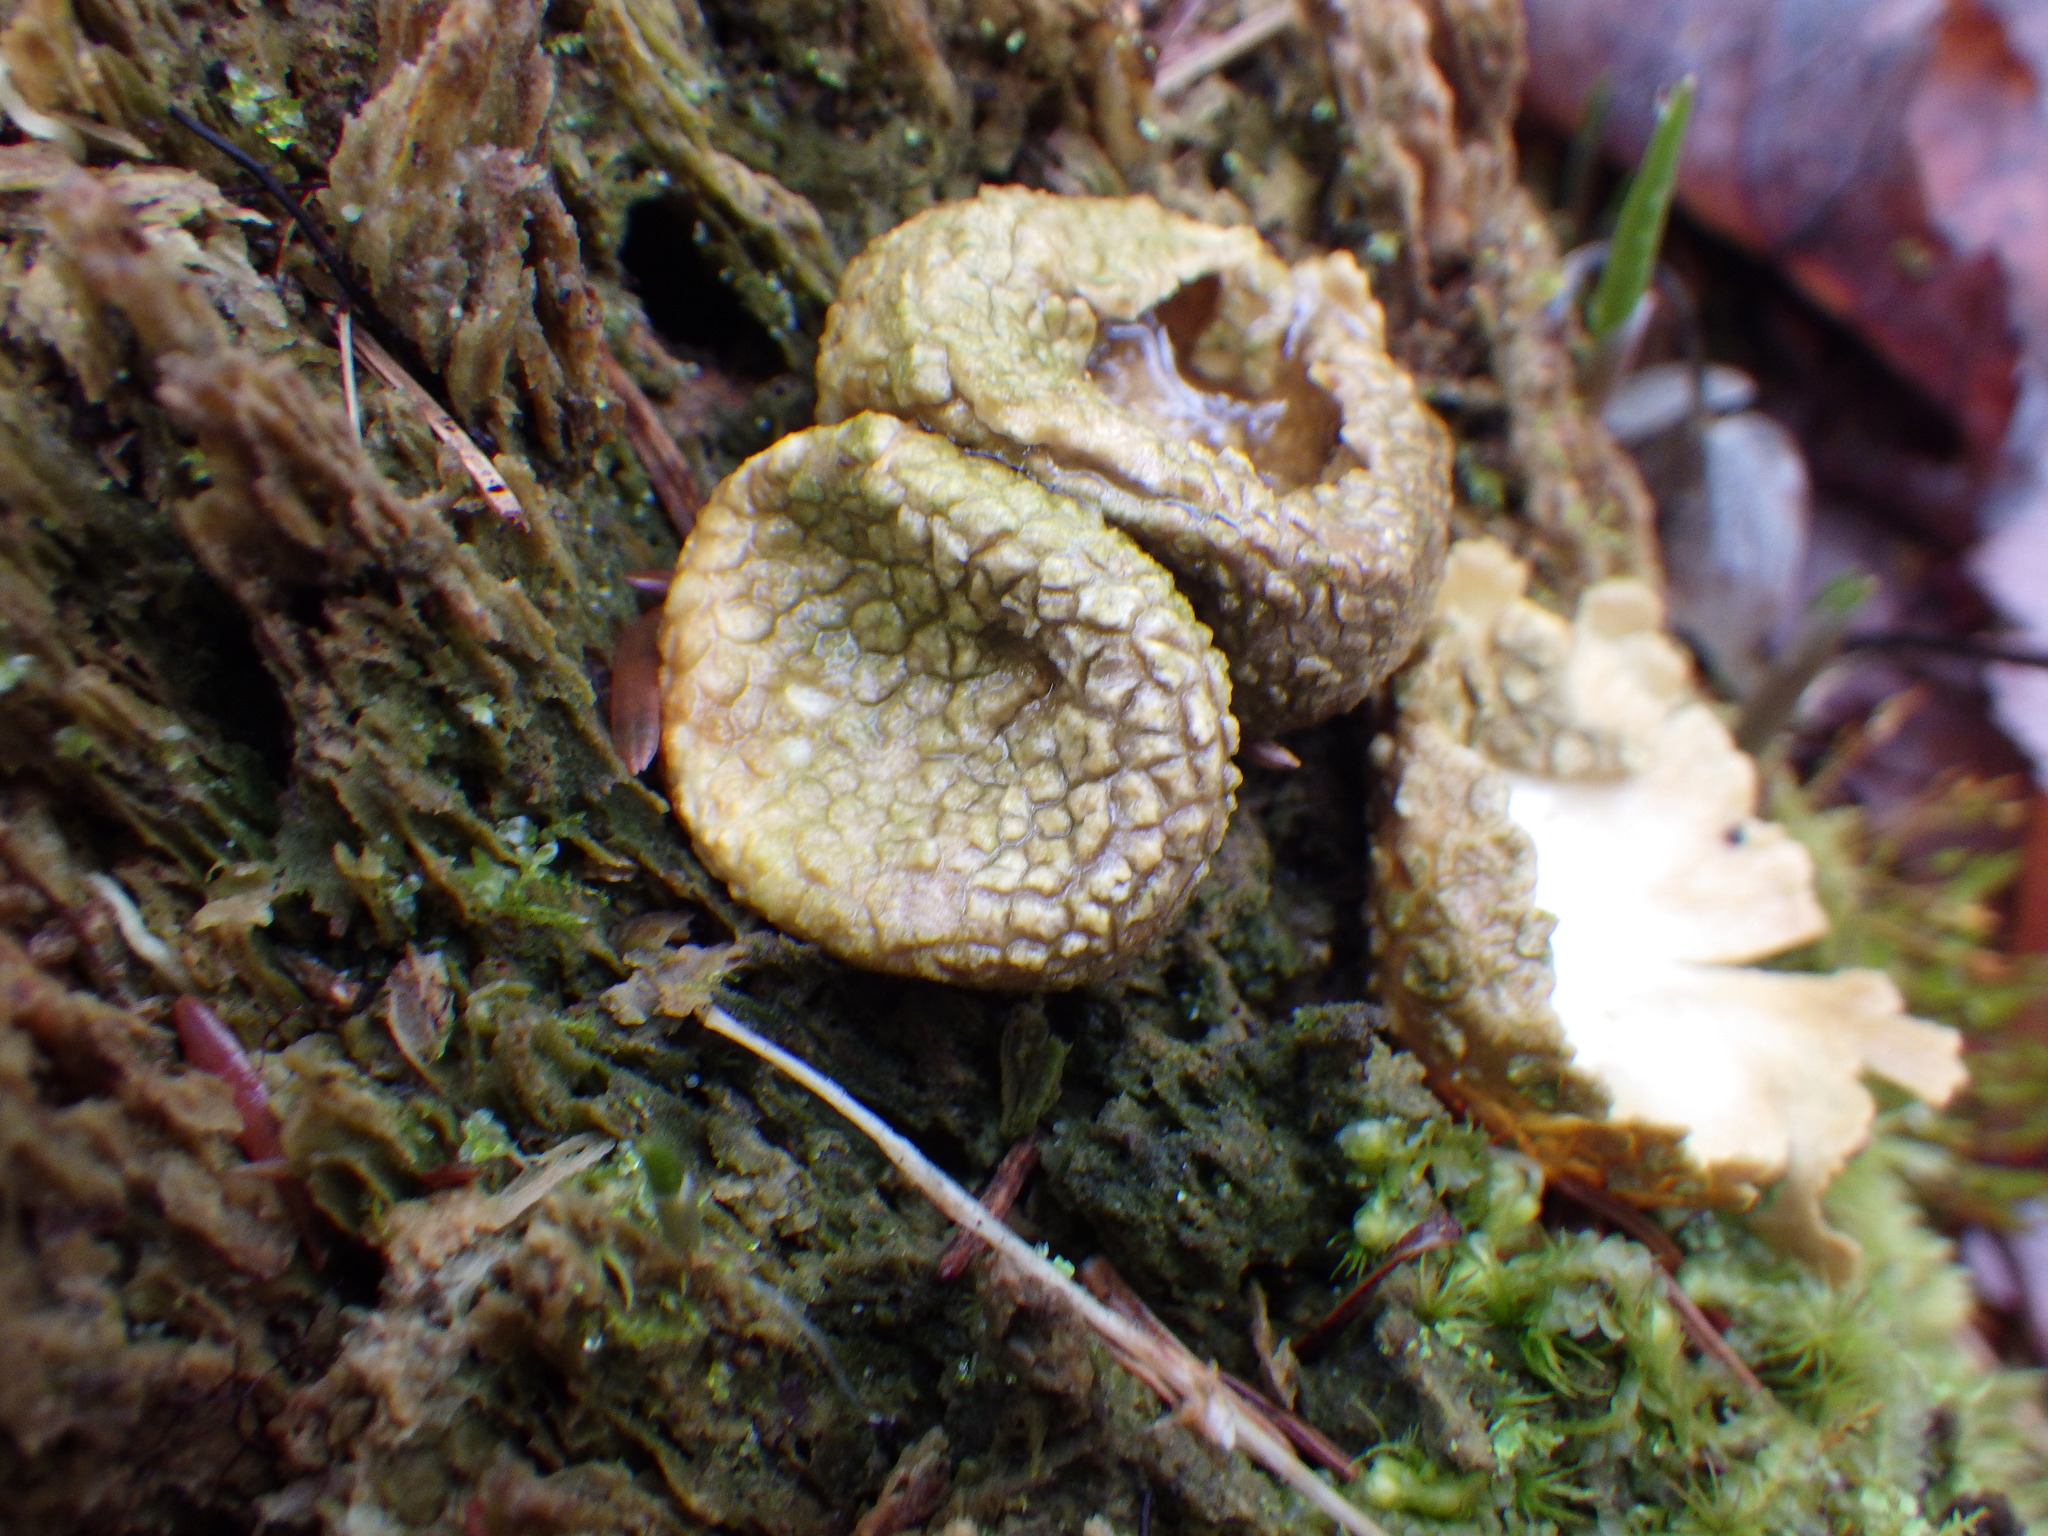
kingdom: Fungi
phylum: Basidiomycota
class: Agaricomycetes
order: Boletales
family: Sclerodermataceae
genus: Scleroderma
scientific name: Scleroderma citrinum
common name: Common earthball
